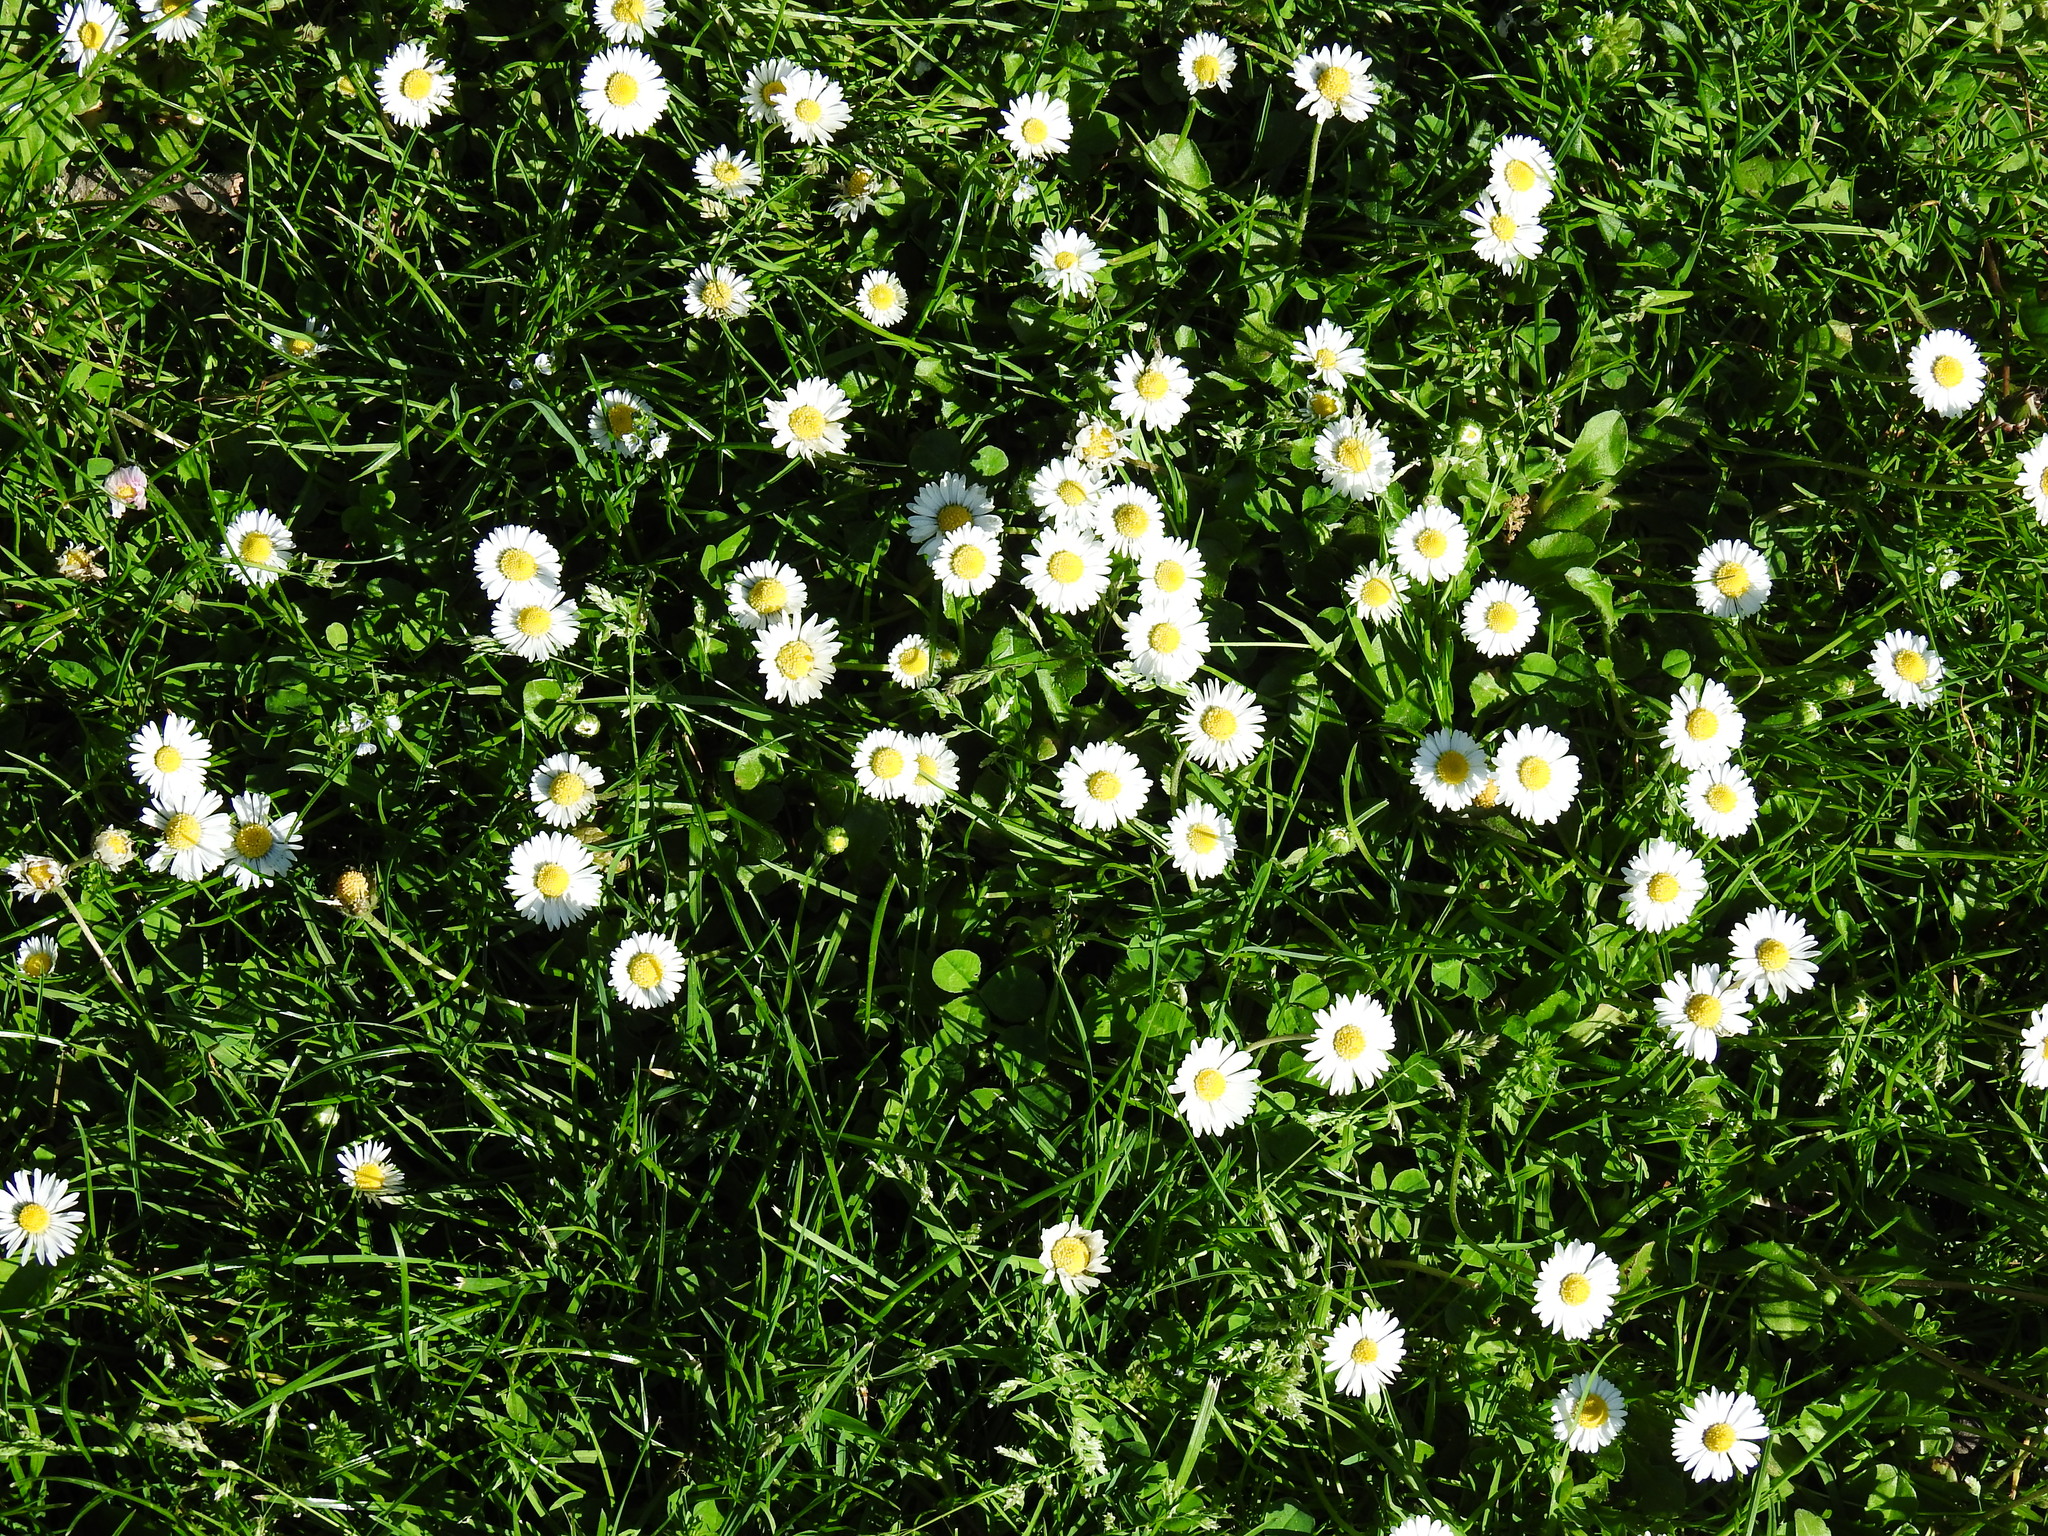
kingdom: Plantae
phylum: Tracheophyta
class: Magnoliopsida
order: Asterales
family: Asteraceae
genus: Bellis
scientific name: Bellis perennis
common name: Lawndaisy
